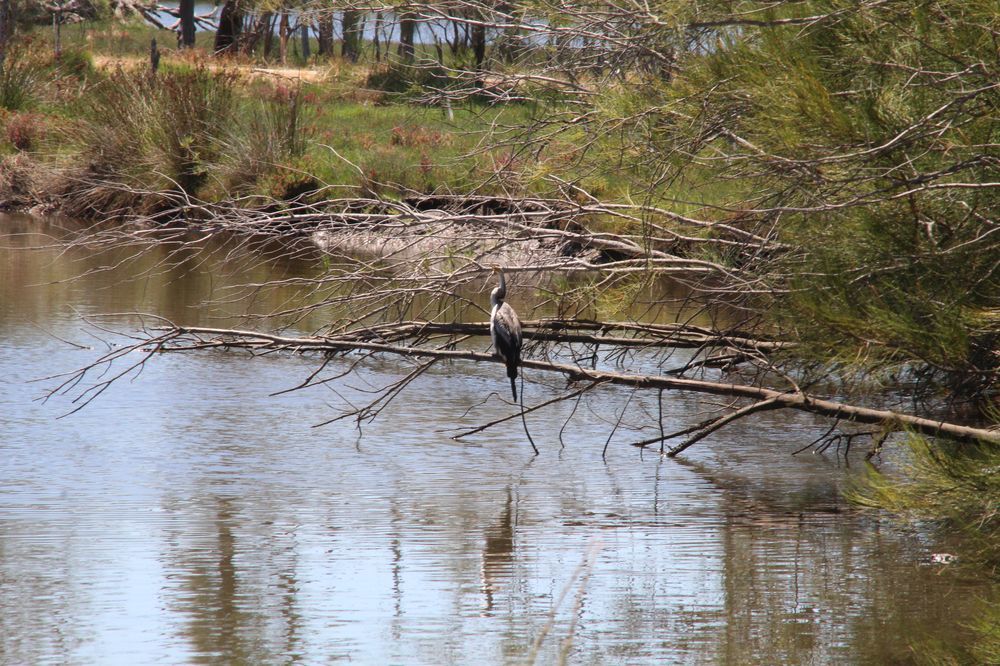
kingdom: Animalia
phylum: Chordata
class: Aves
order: Suliformes
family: Anhingidae
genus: Anhinga
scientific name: Anhinga novaehollandiae
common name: Australasian darter
